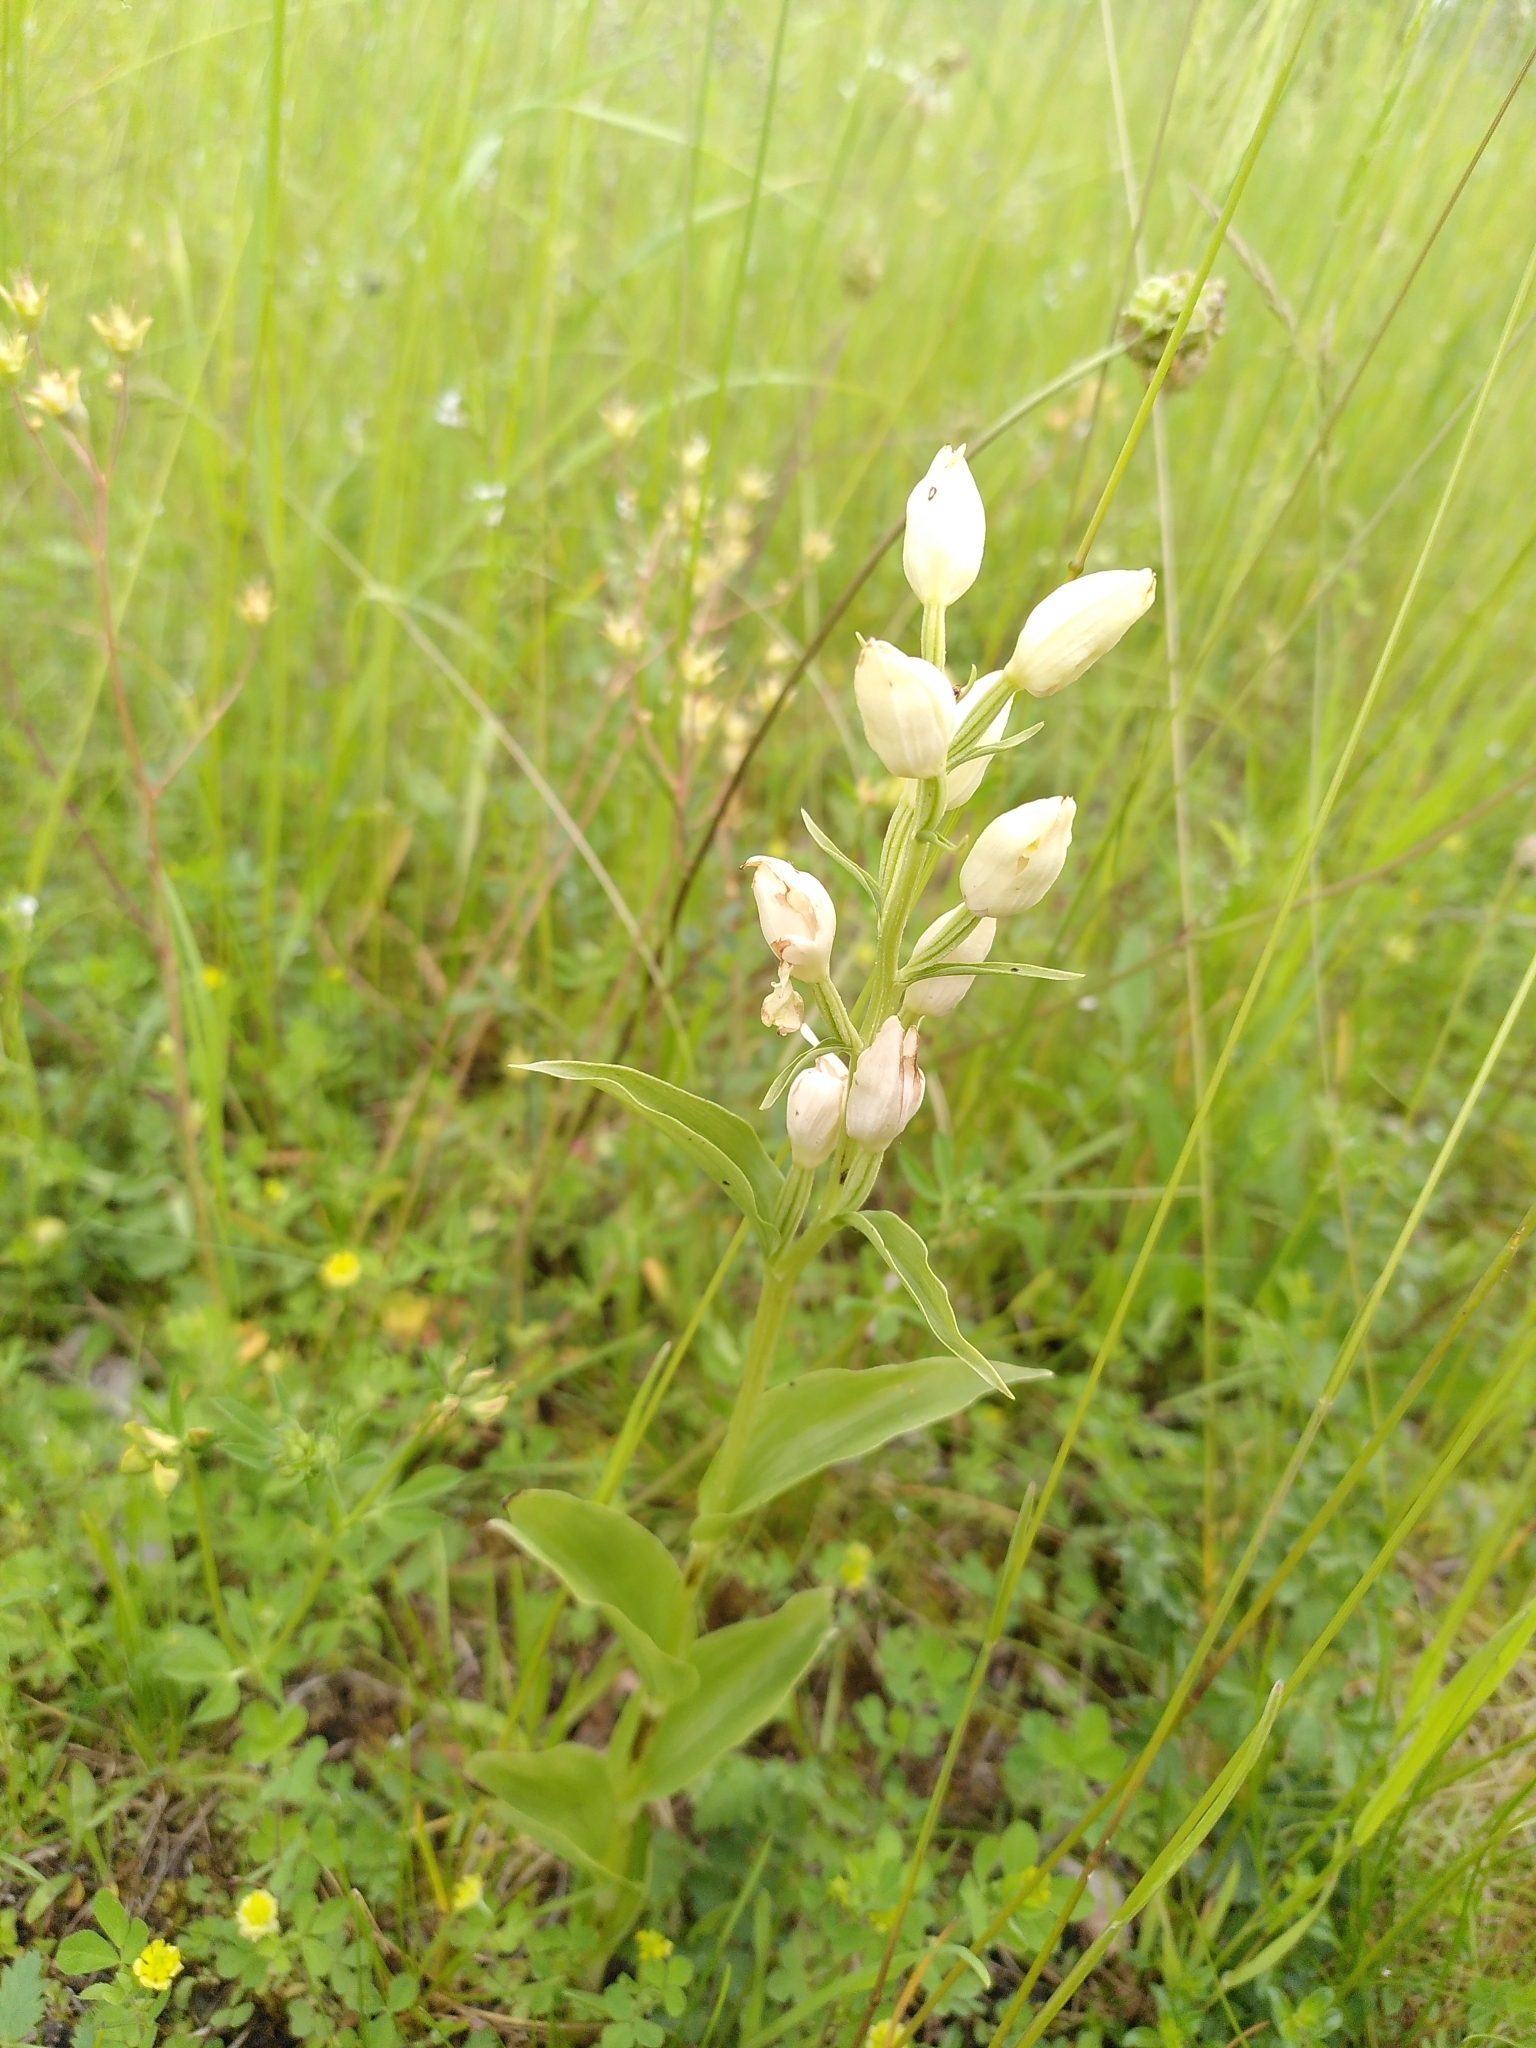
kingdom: Plantae
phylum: Tracheophyta
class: Liliopsida
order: Asparagales
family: Orchidaceae
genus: Cephalanthera
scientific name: Cephalanthera damasonium
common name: White helleborine
